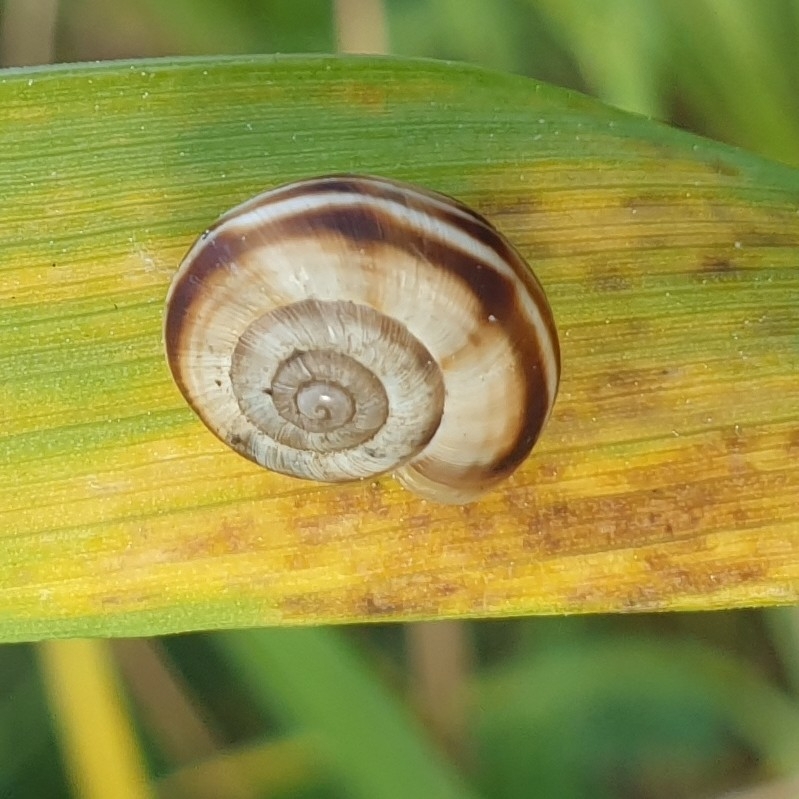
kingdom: Animalia
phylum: Mollusca
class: Gastropoda
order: Stylommatophora
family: Geomitridae
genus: Xerolenta
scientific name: Xerolenta obvia
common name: White heath snail
